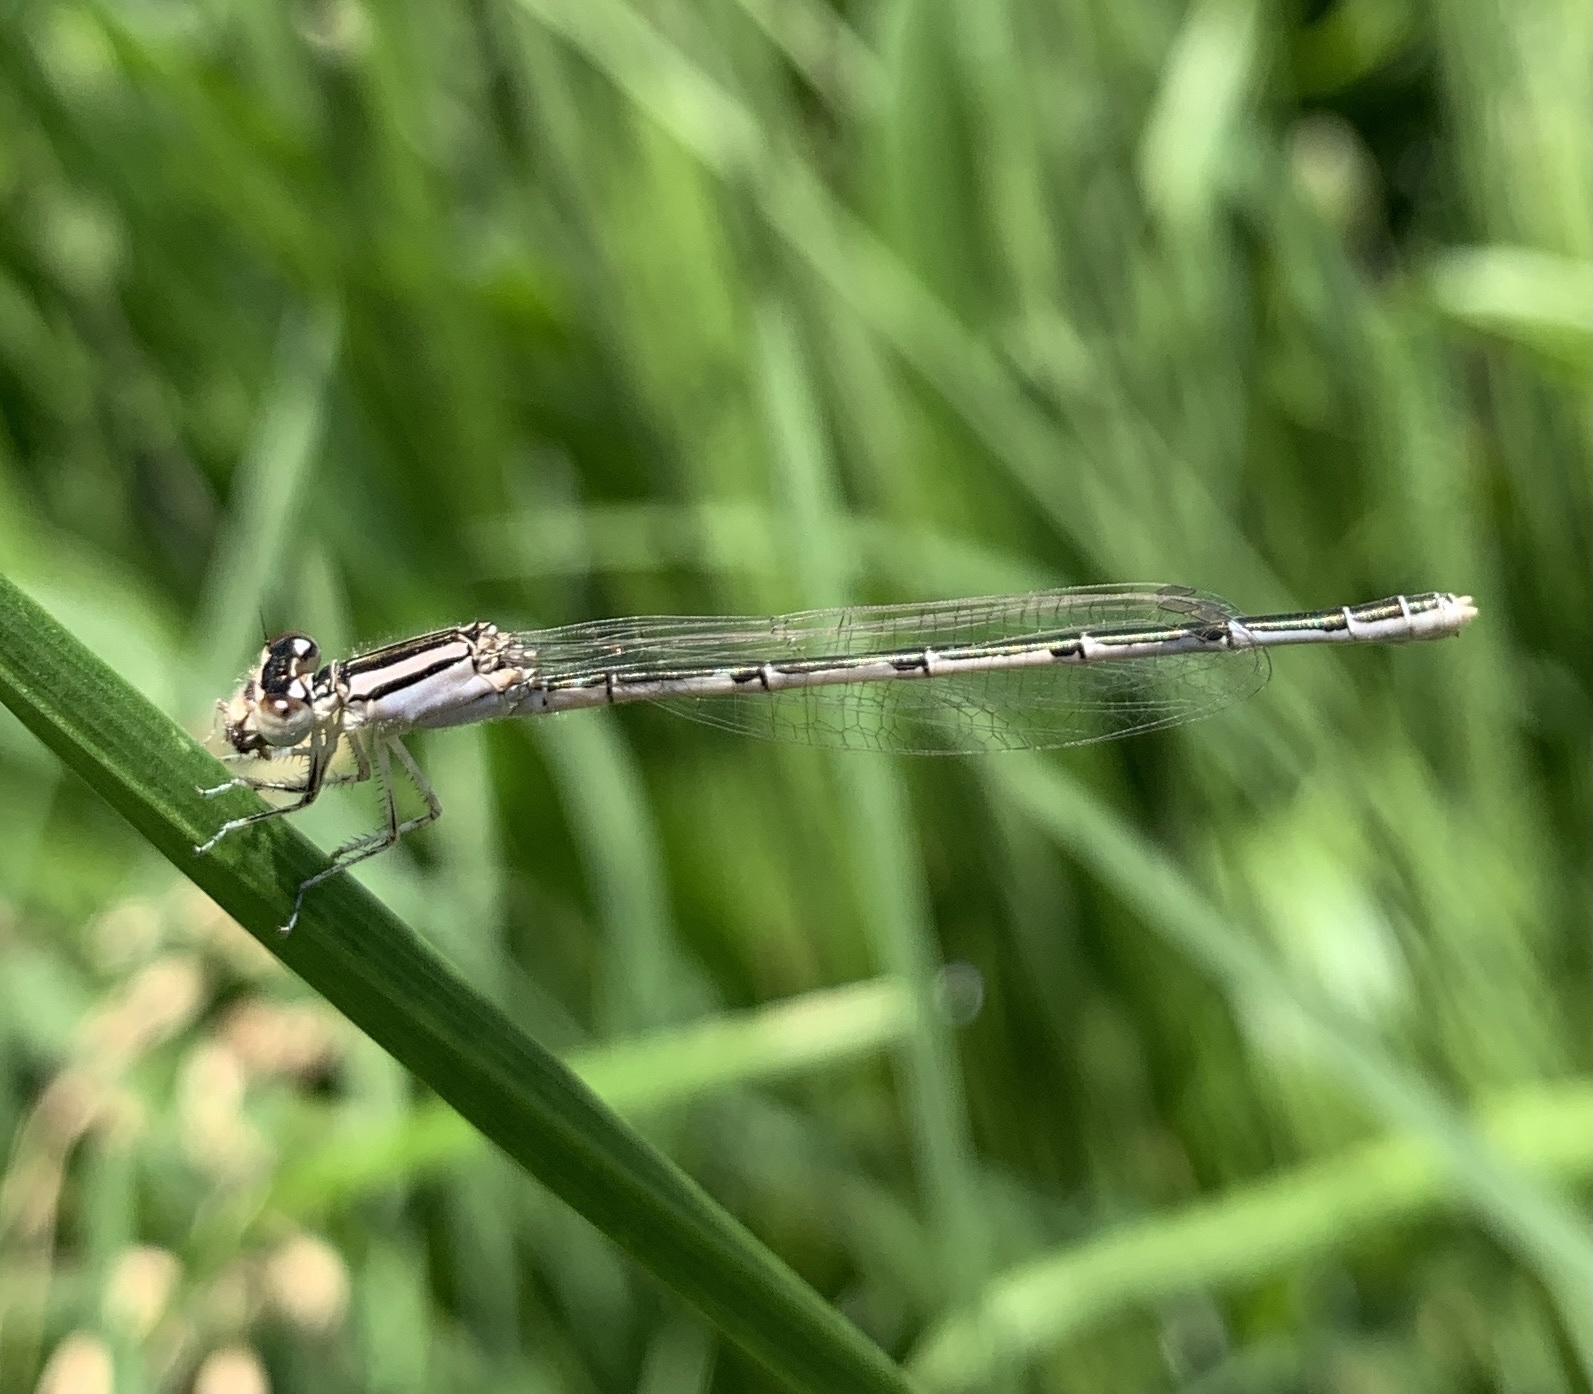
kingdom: Animalia
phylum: Arthropoda
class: Insecta
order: Odonata
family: Coenagrionidae
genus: Enallagma
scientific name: Enallagma
